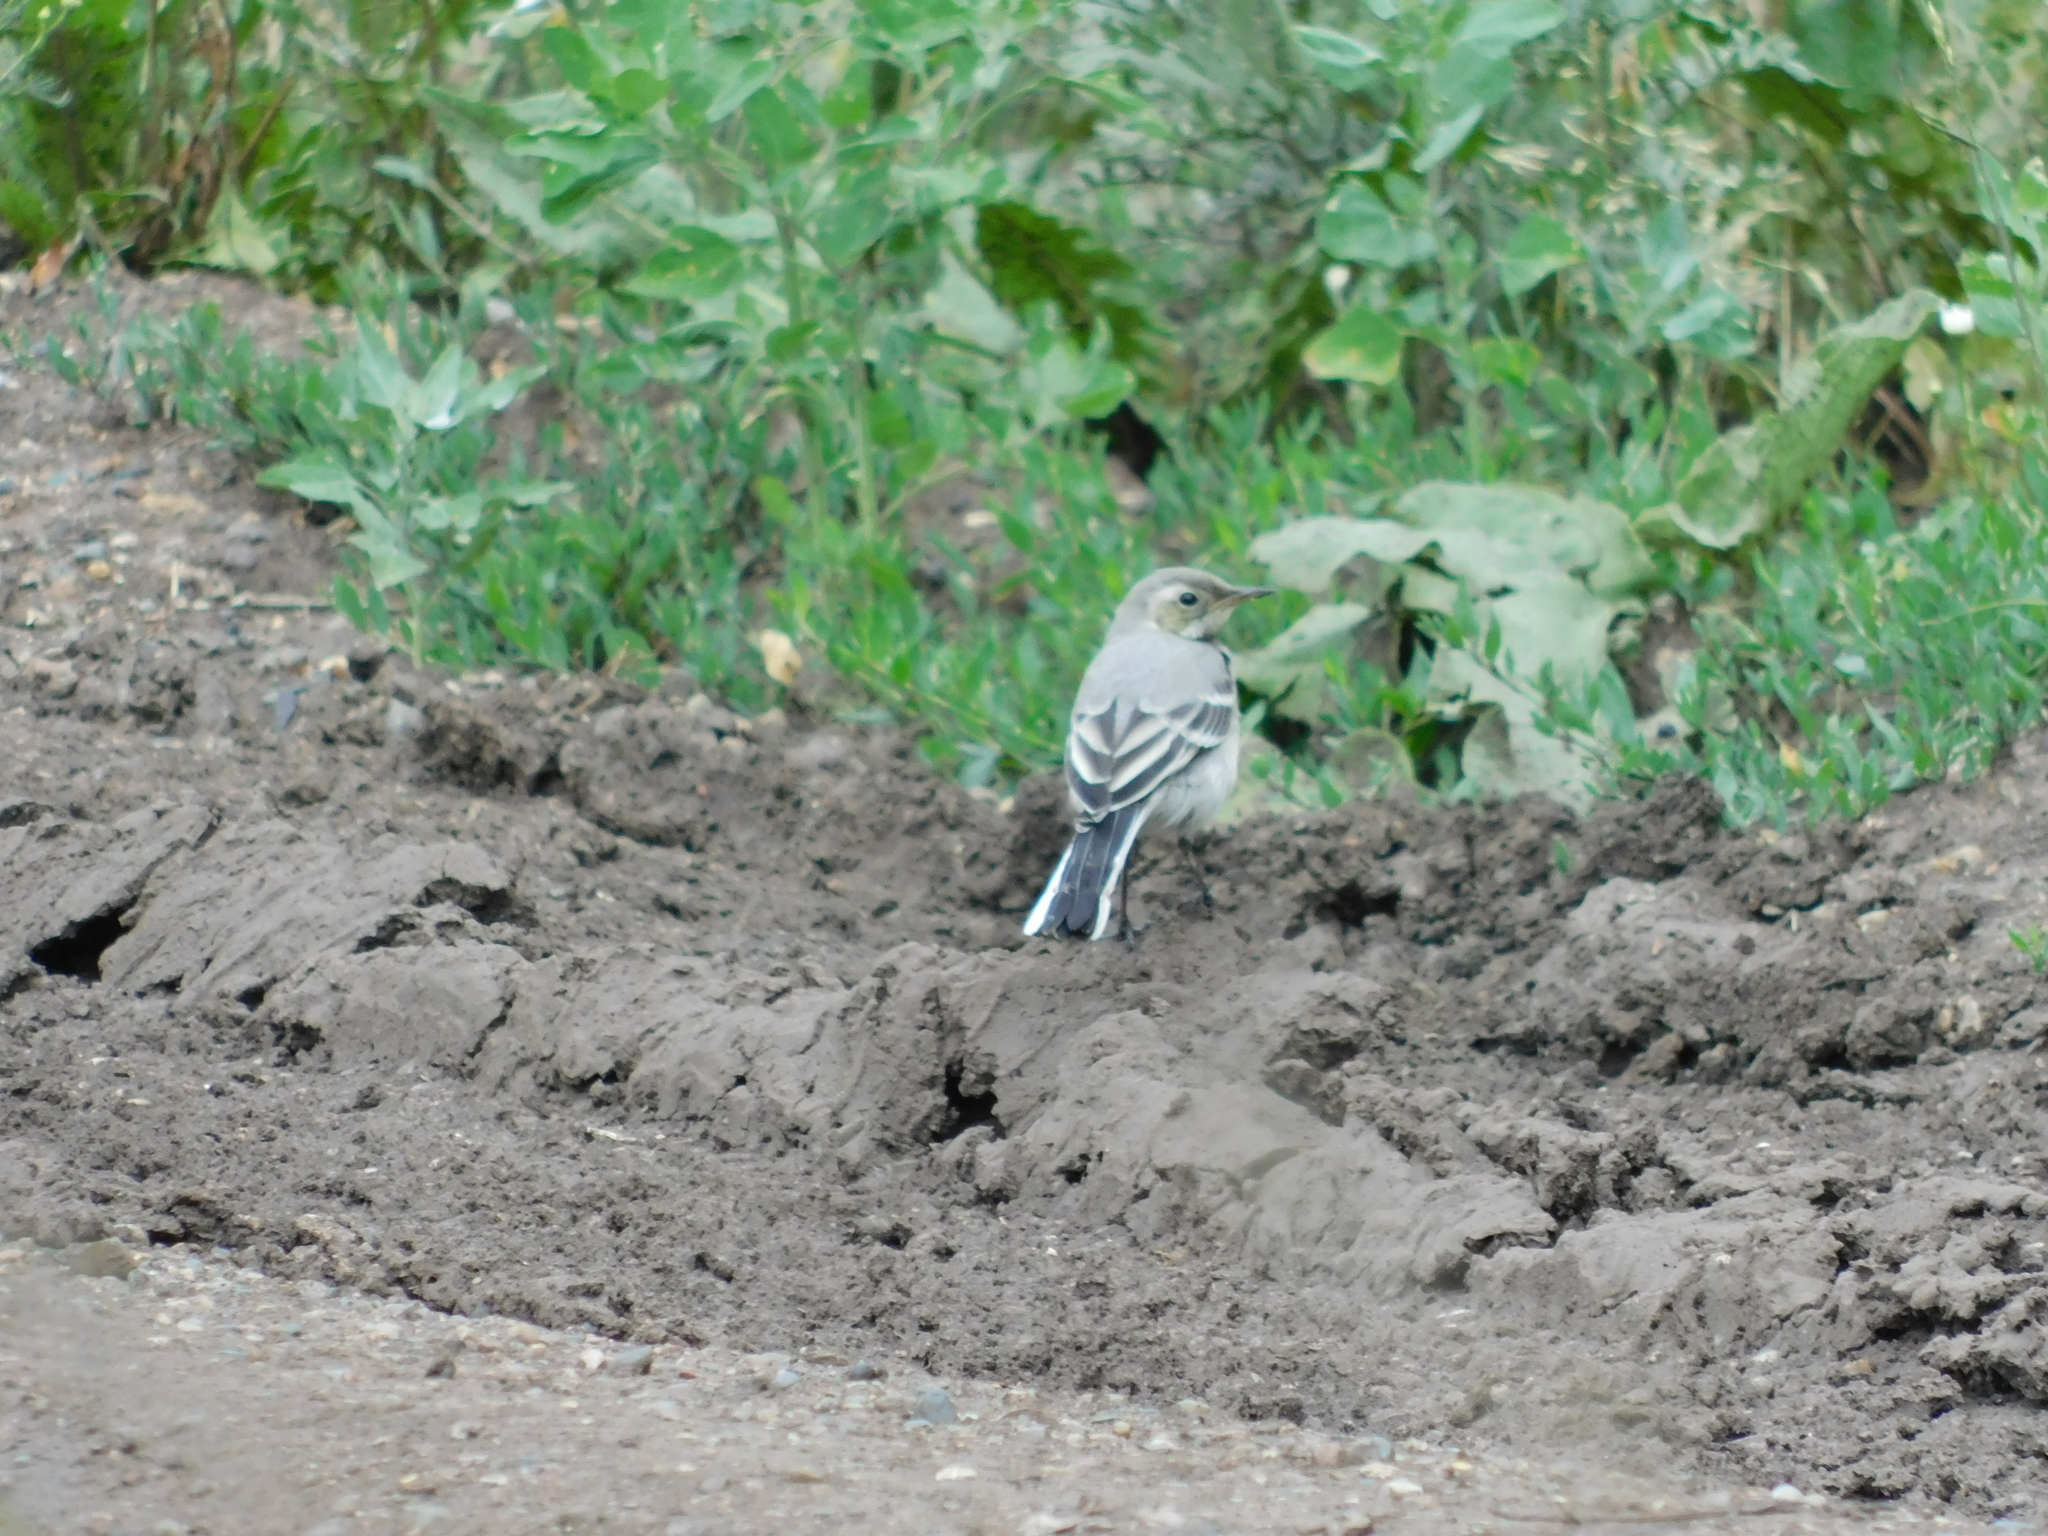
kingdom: Animalia
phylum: Chordata
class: Aves
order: Passeriformes
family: Motacillidae
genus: Motacilla
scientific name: Motacilla alba
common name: White wagtail
